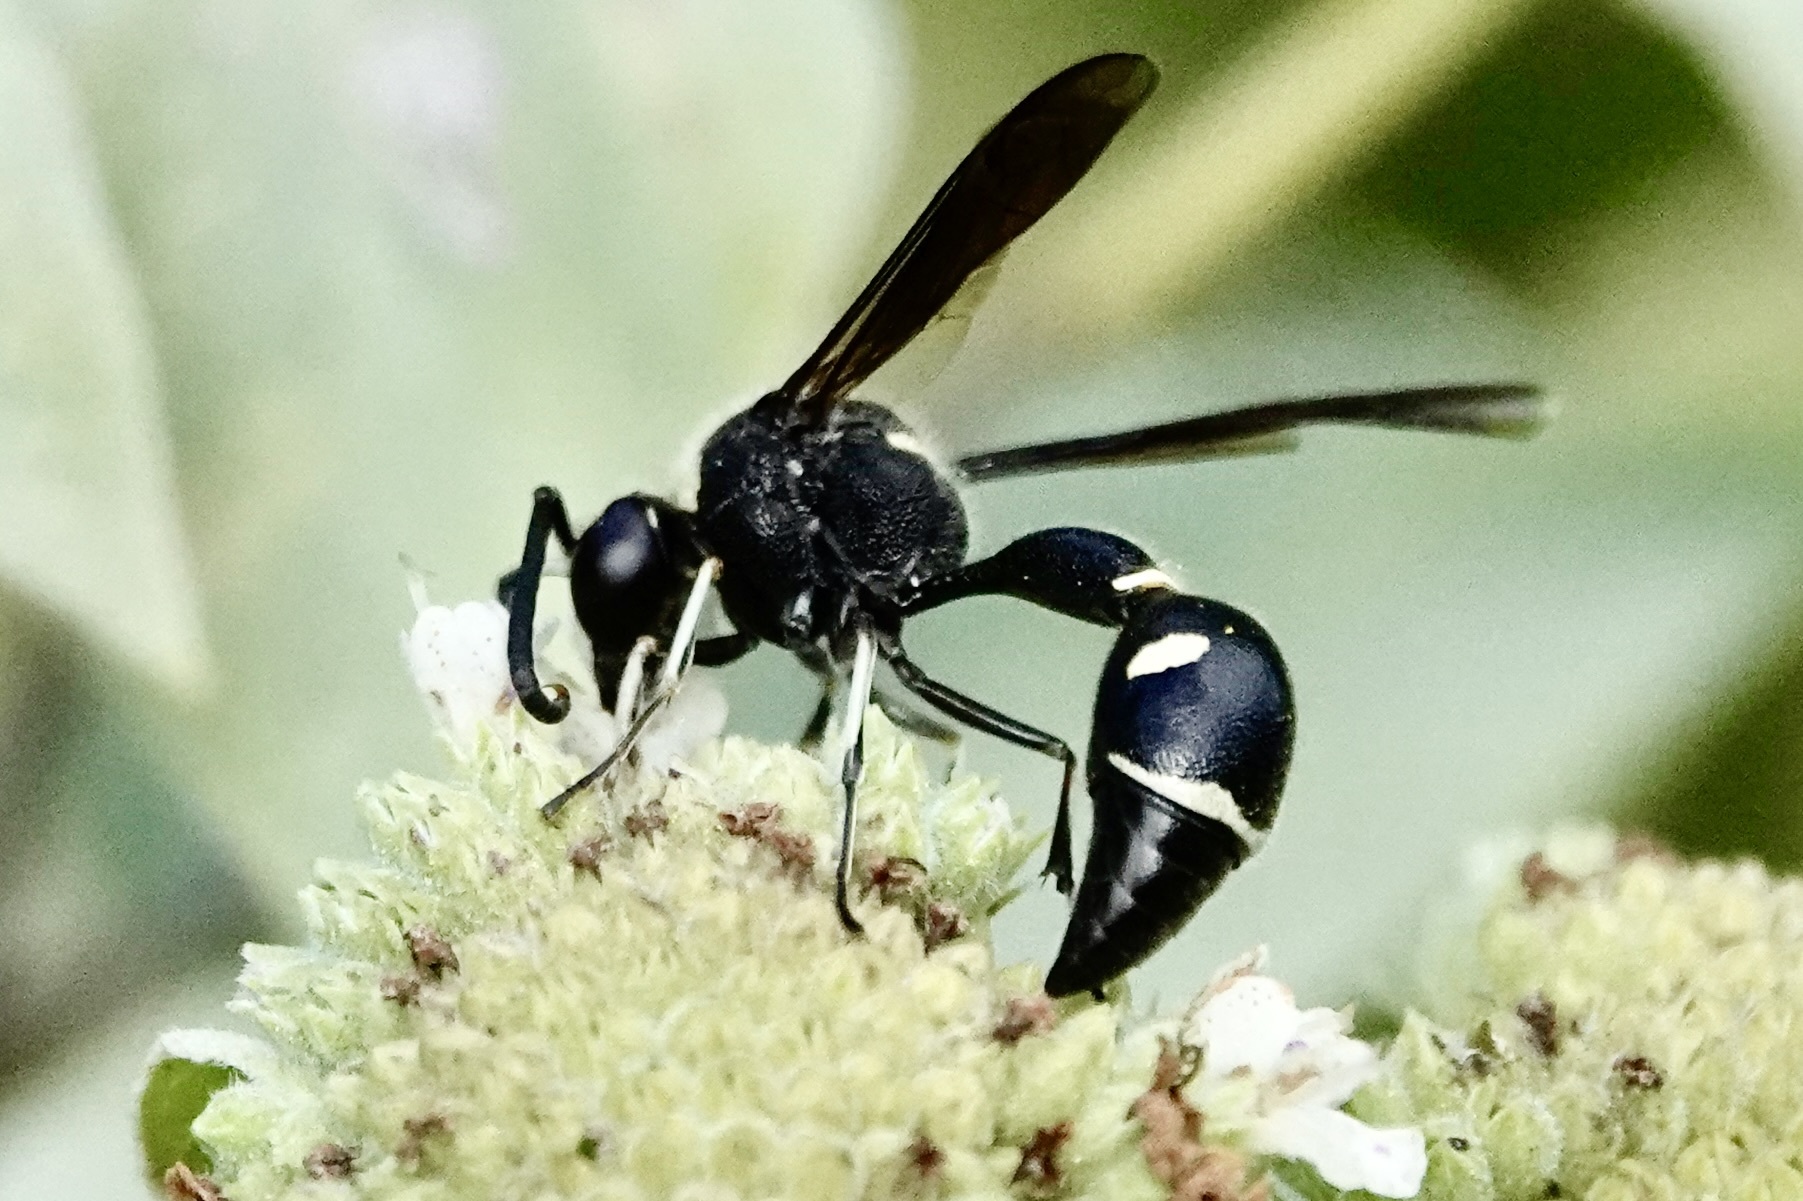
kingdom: Animalia
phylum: Arthropoda
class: Insecta
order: Hymenoptera
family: Vespidae
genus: Eumenes
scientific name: Eumenes fraternus
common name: Fraternal potter wasp
